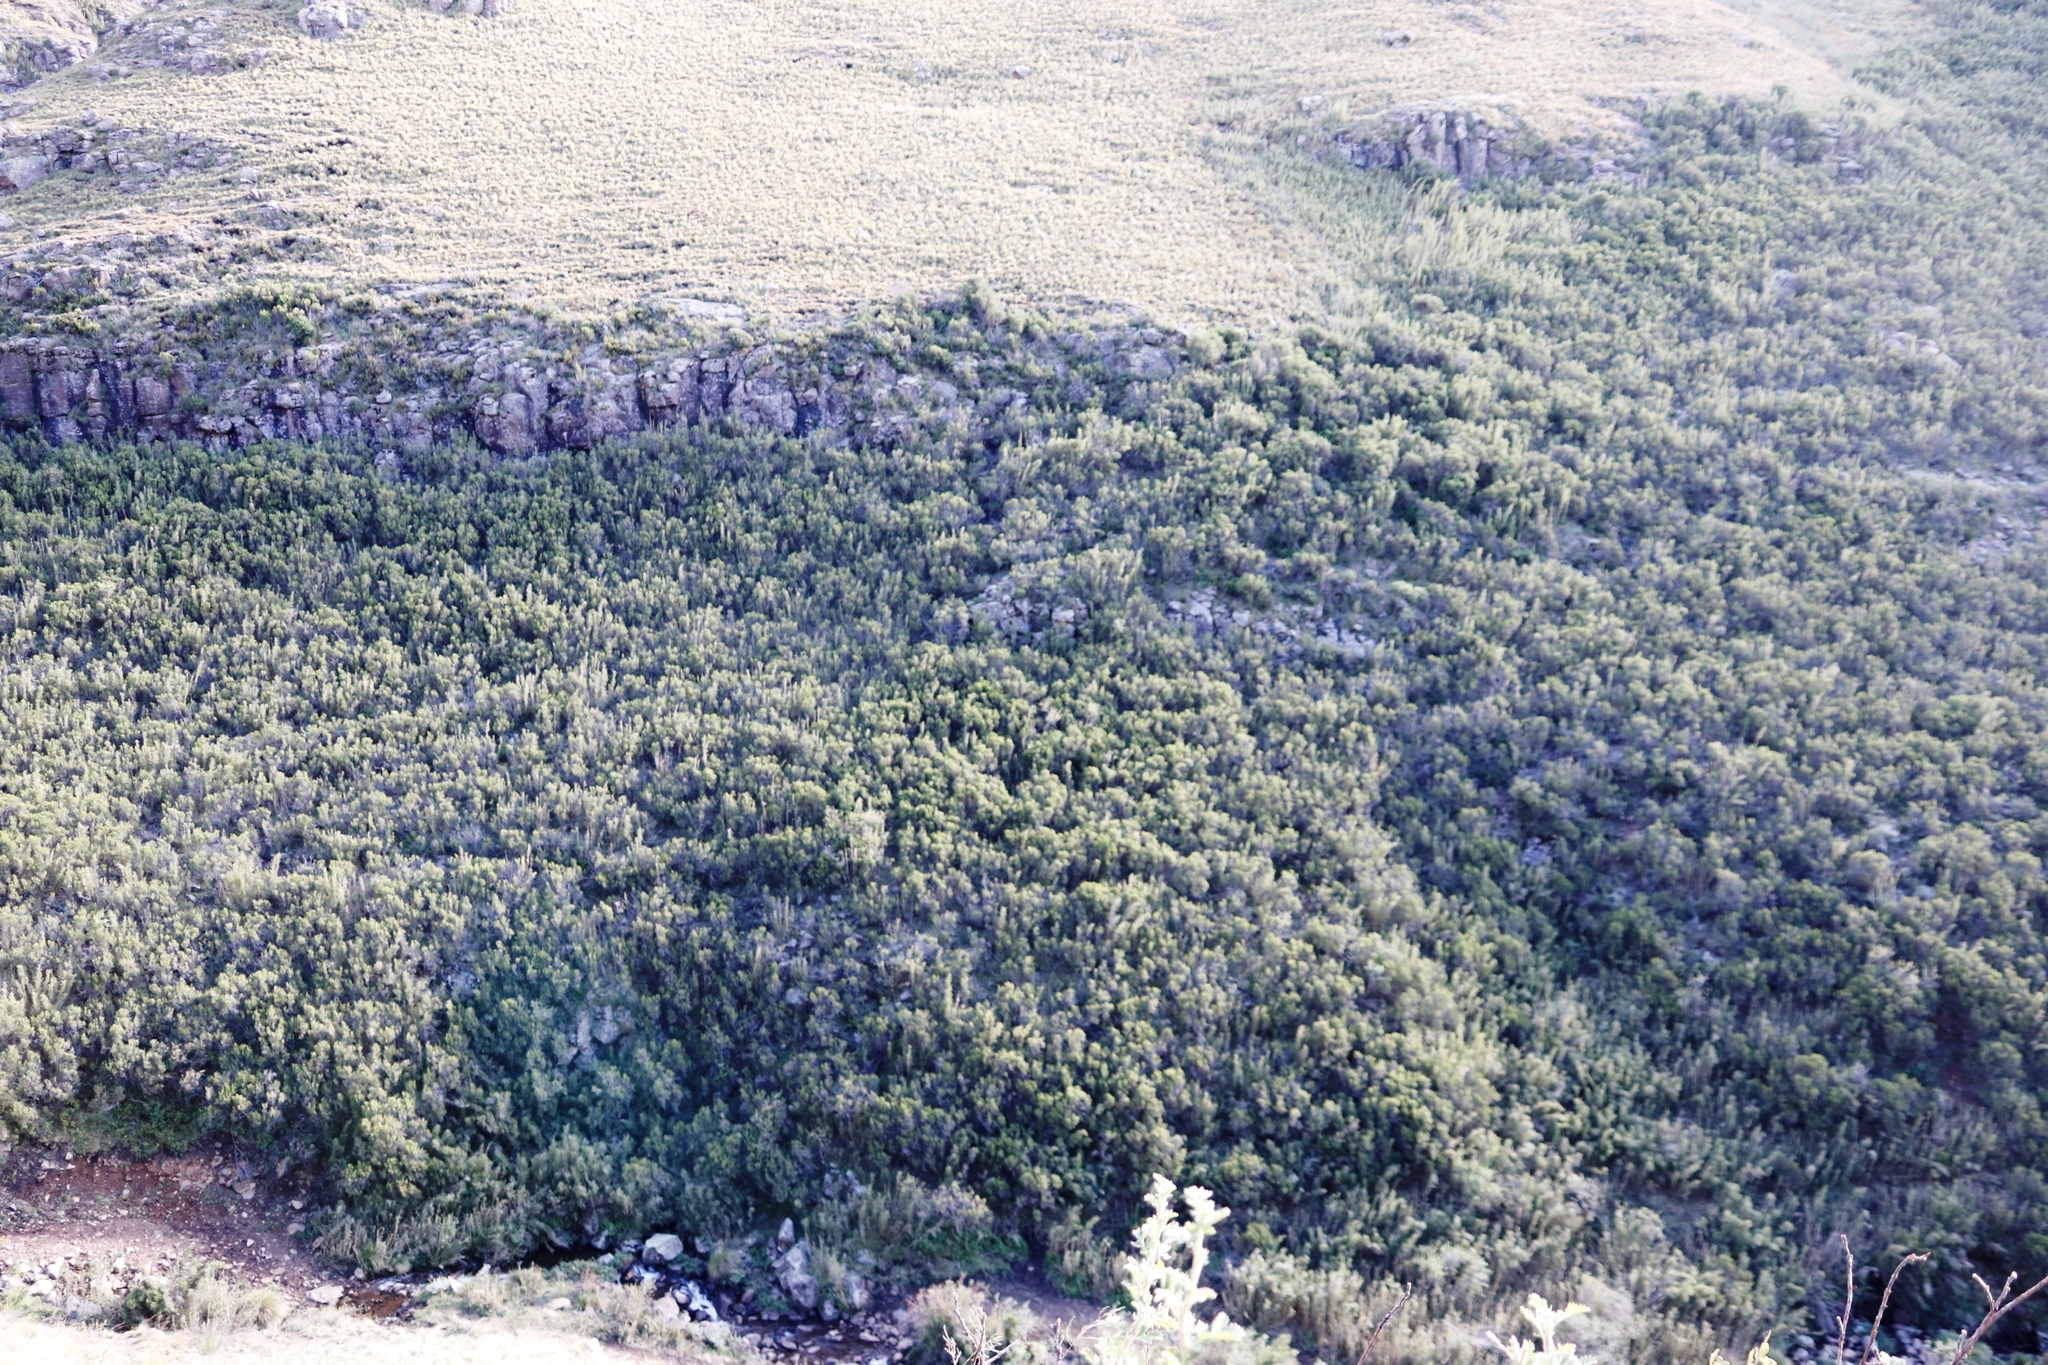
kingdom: Plantae
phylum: Tracheophyta
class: Liliopsida
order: Poales
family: Poaceae
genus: Bergbambos
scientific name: Bergbambos tessellata
